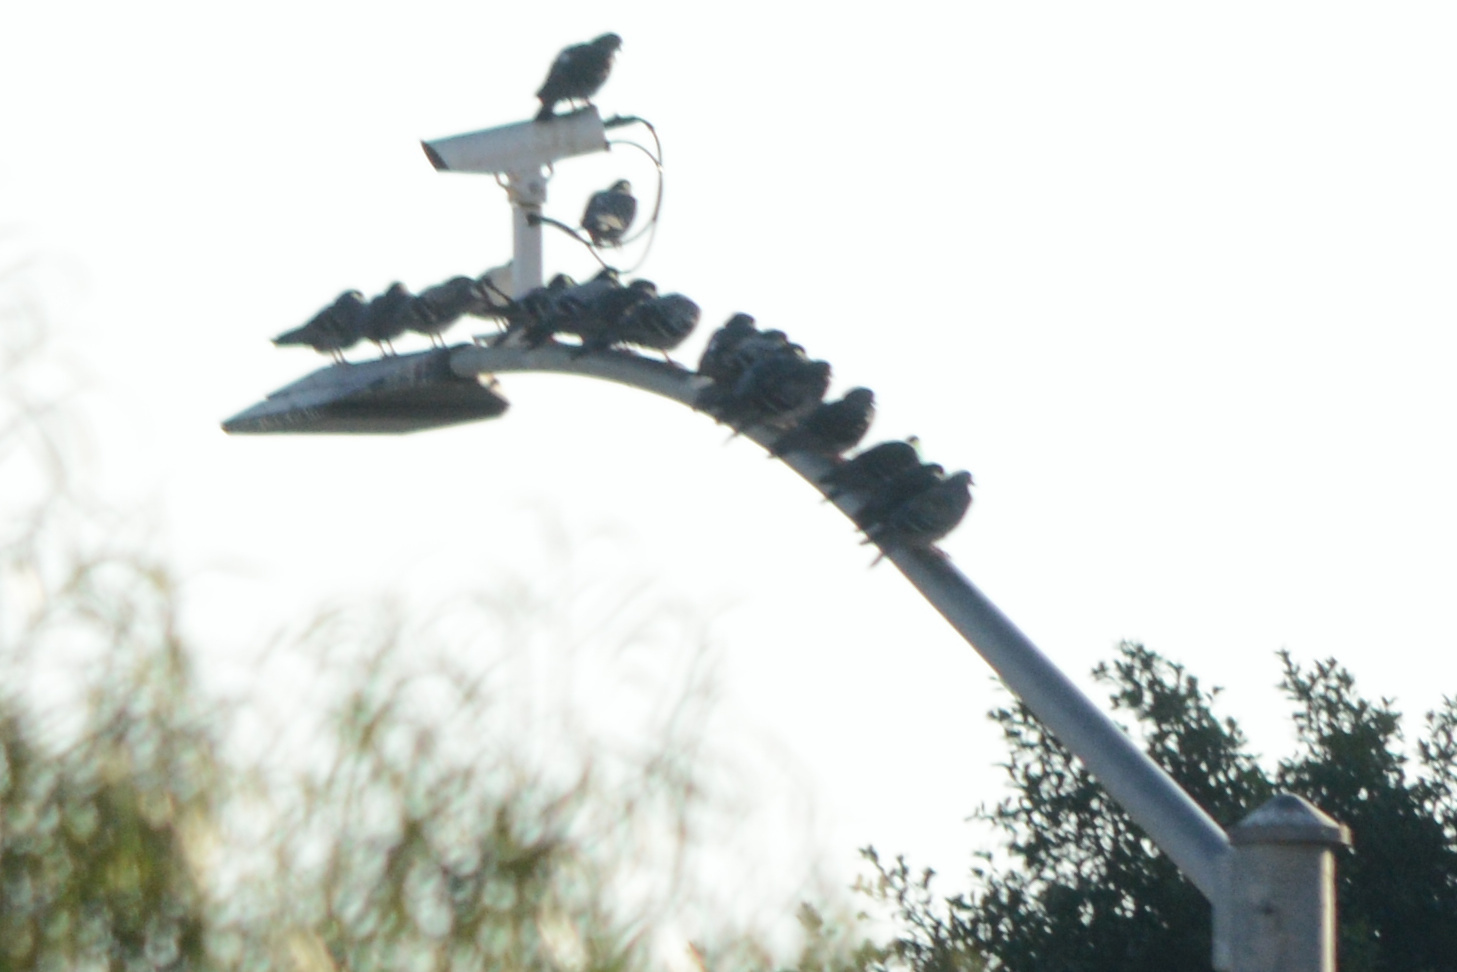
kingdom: Animalia
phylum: Chordata
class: Aves
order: Columbiformes
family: Columbidae
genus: Columba
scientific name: Columba livia
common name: Rock pigeon
